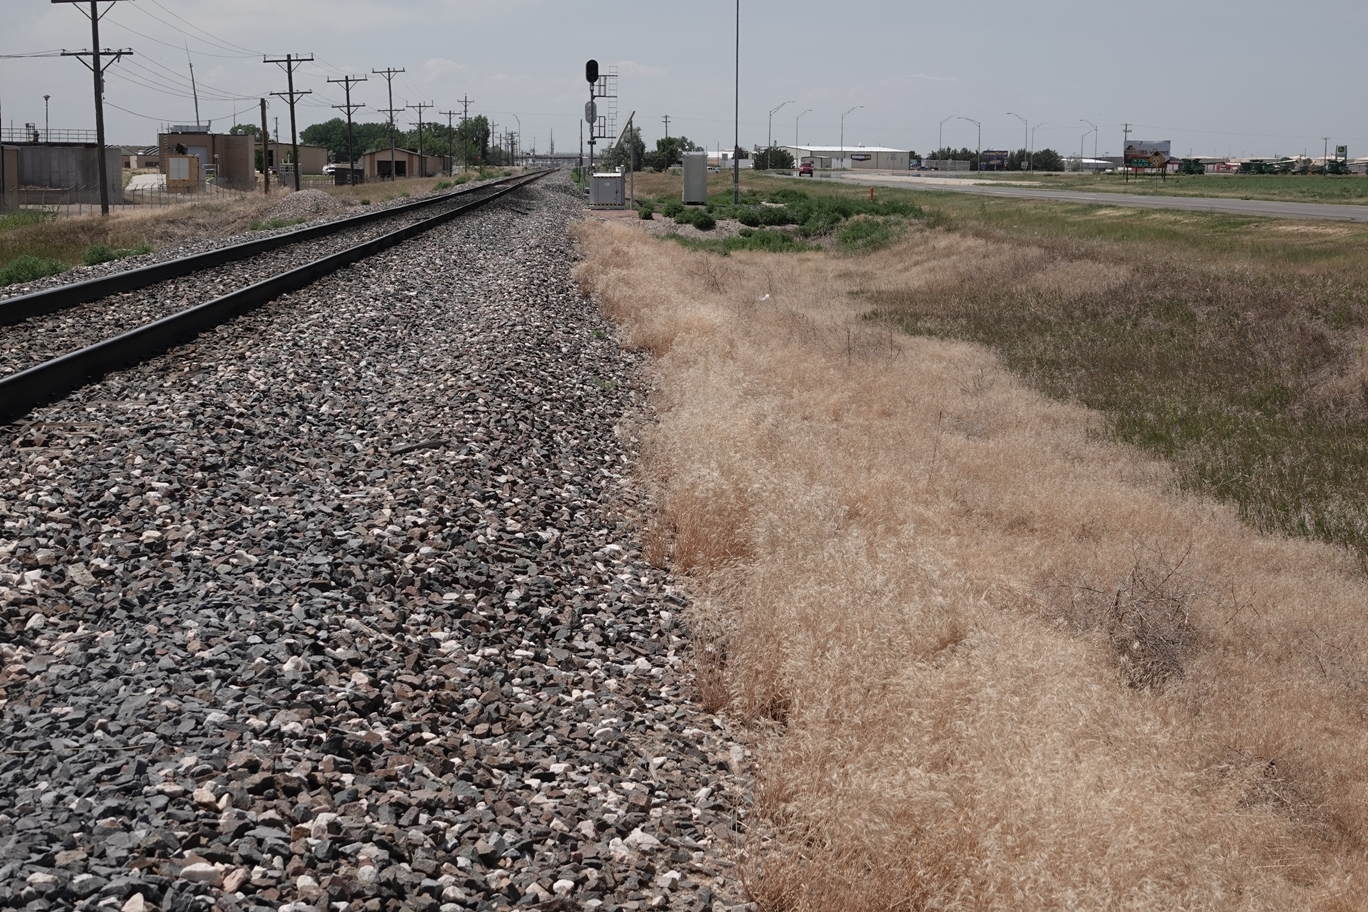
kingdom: Plantae
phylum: Tracheophyta
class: Liliopsida
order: Poales
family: Poaceae
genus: Bromus
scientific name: Bromus tectorum
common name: Cheatgrass
